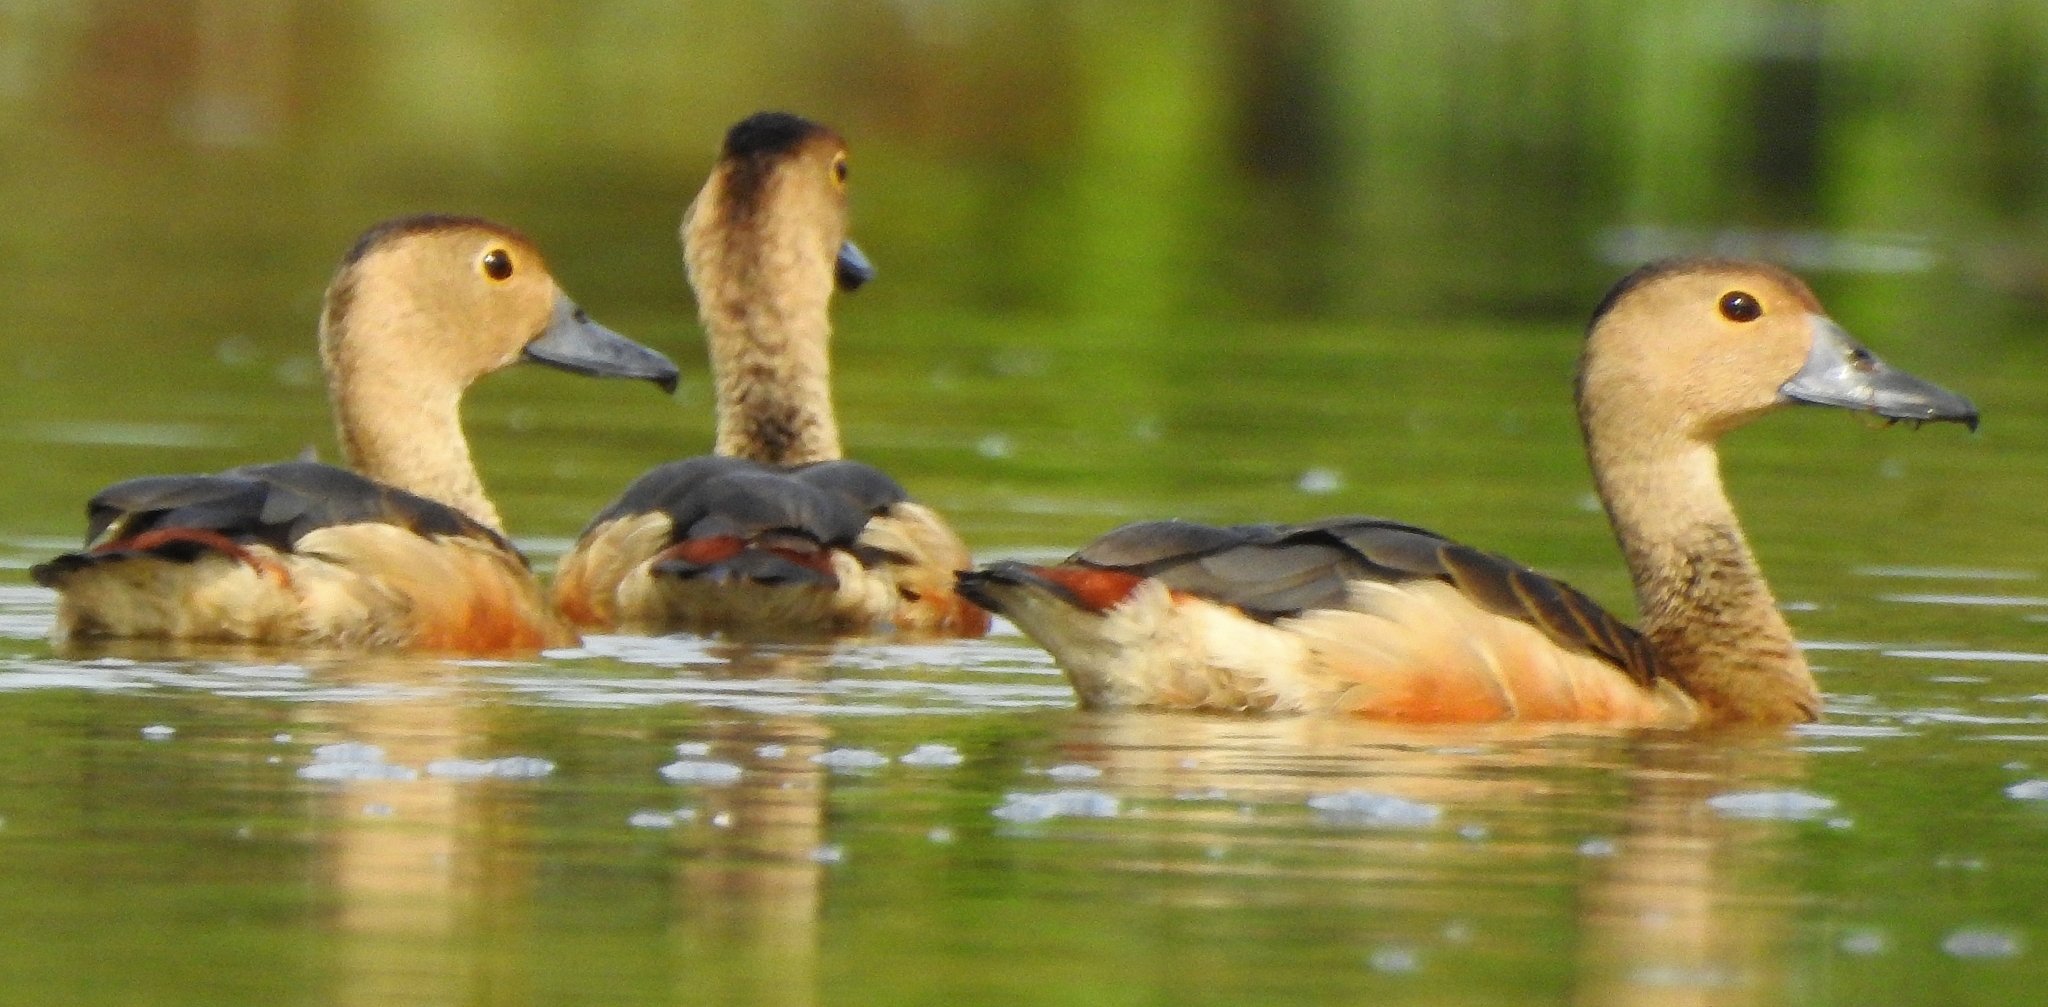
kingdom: Animalia
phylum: Chordata
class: Aves
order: Anseriformes
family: Anatidae
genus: Dendrocygna
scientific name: Dendrocygna javanica
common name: Lesser whistling-duck
